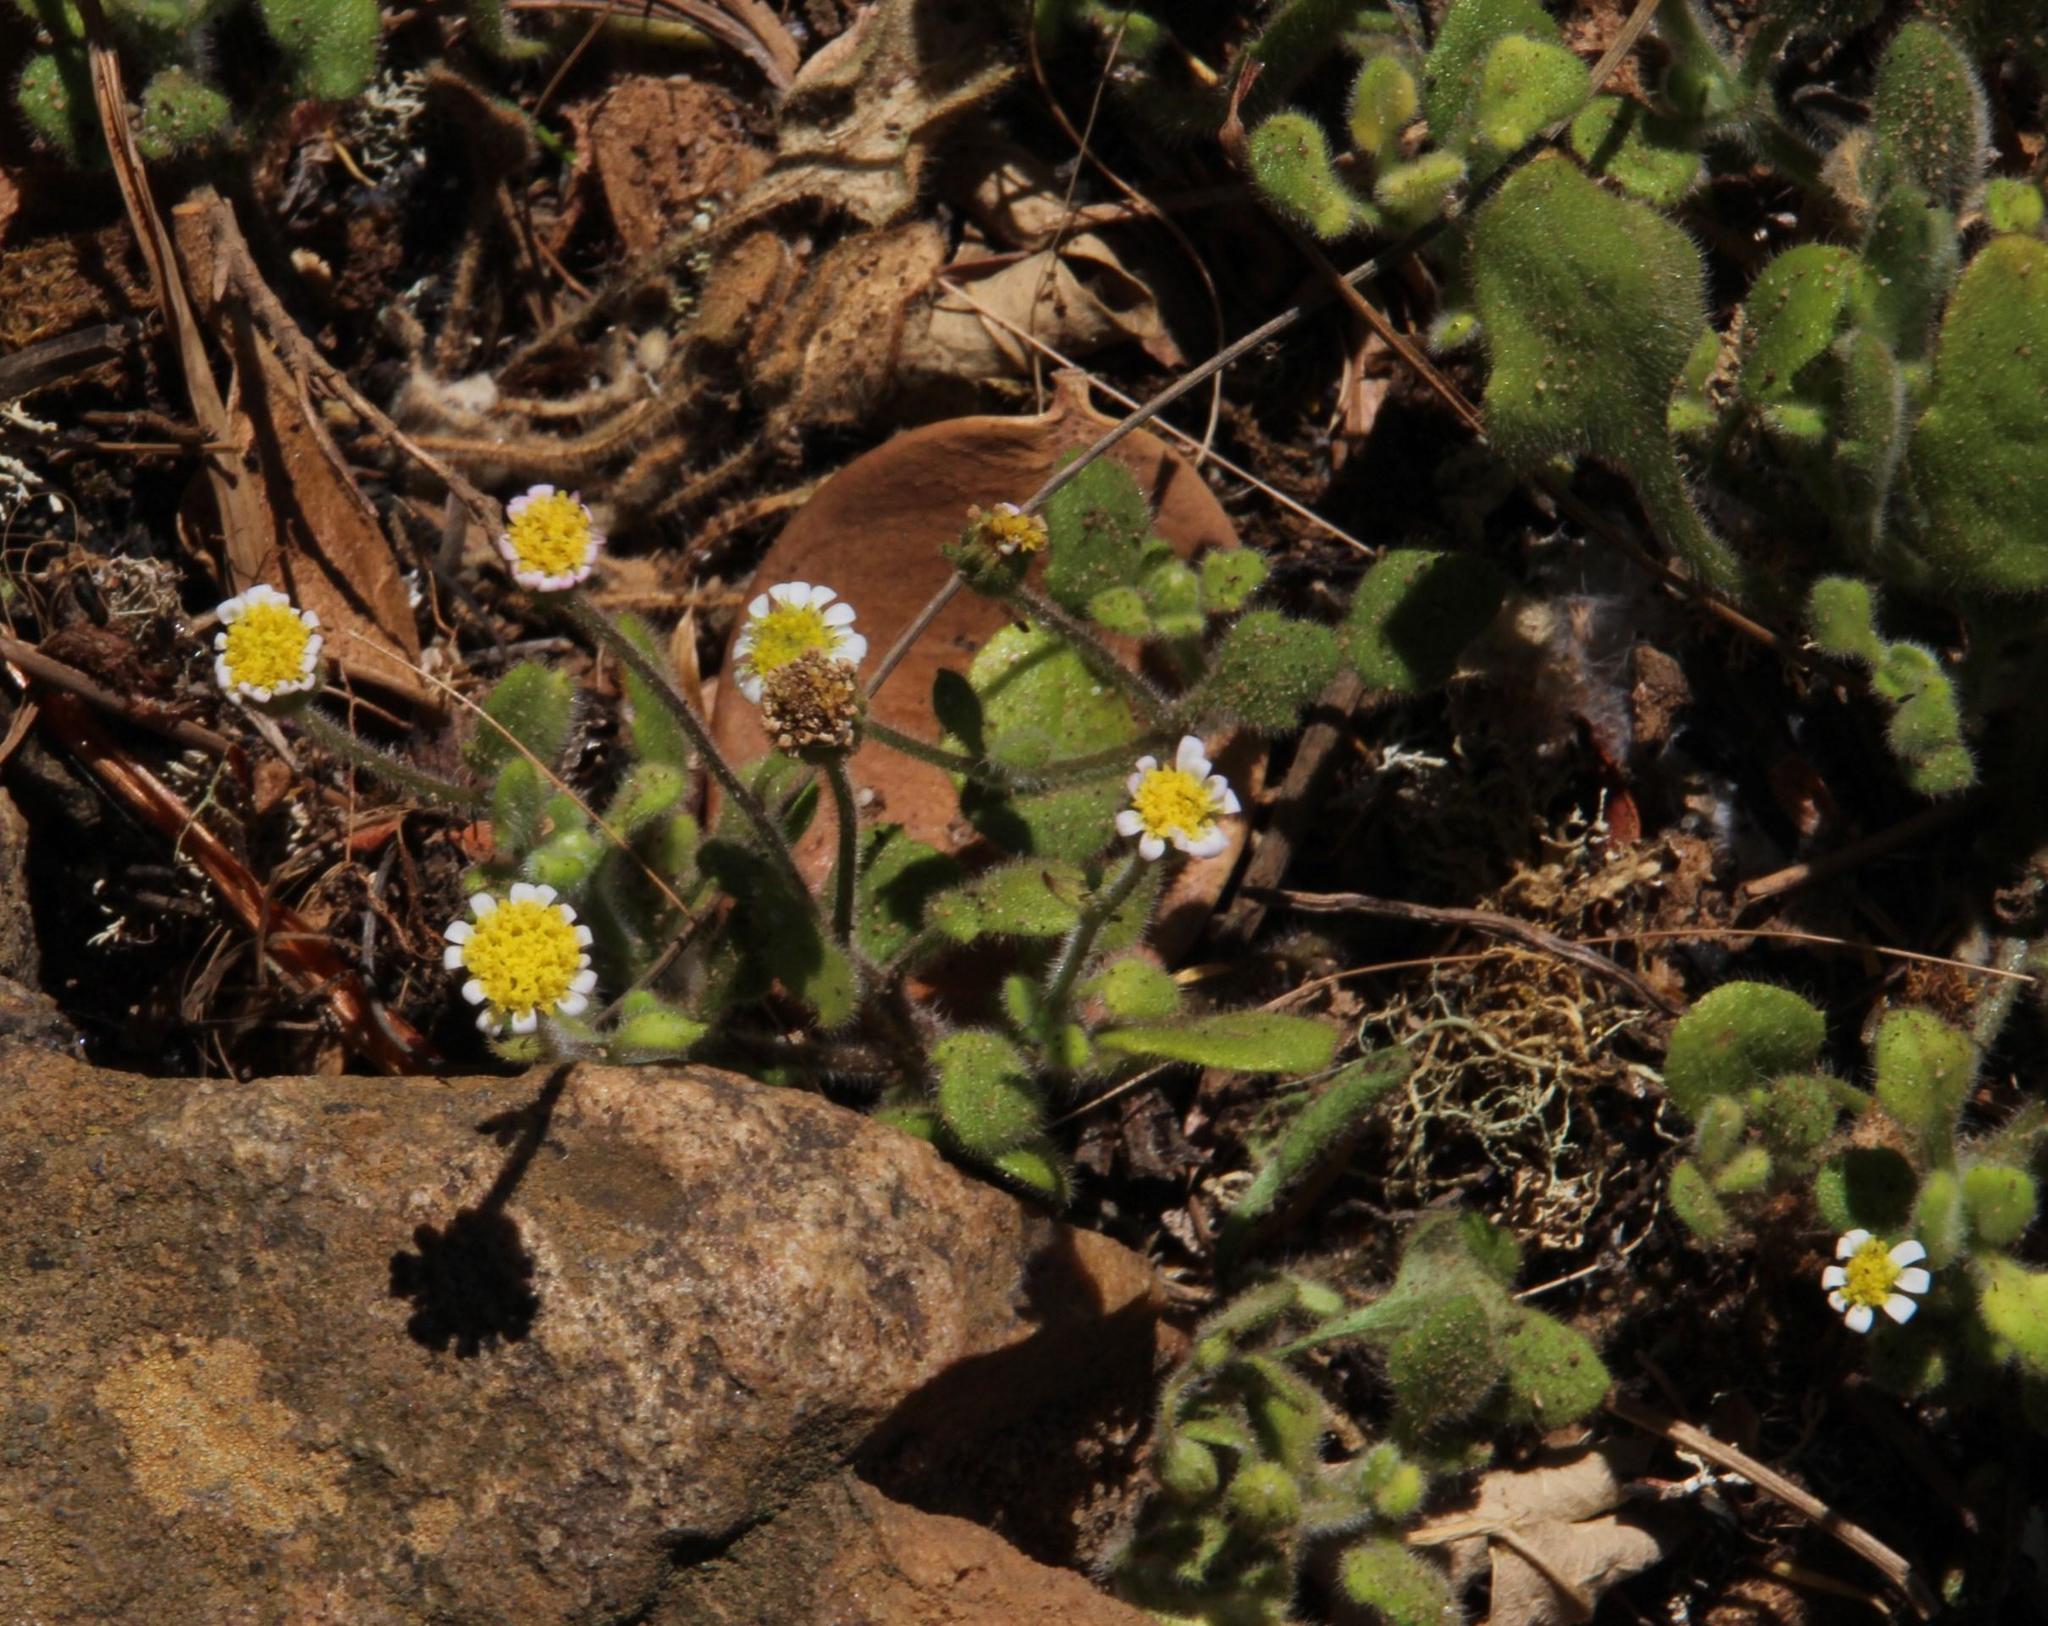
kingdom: Plantae
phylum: Tracheophyta
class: Magnoliopsida
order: Asterales
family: Asteraceae
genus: Felicia
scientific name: Felicia cymbalariae
